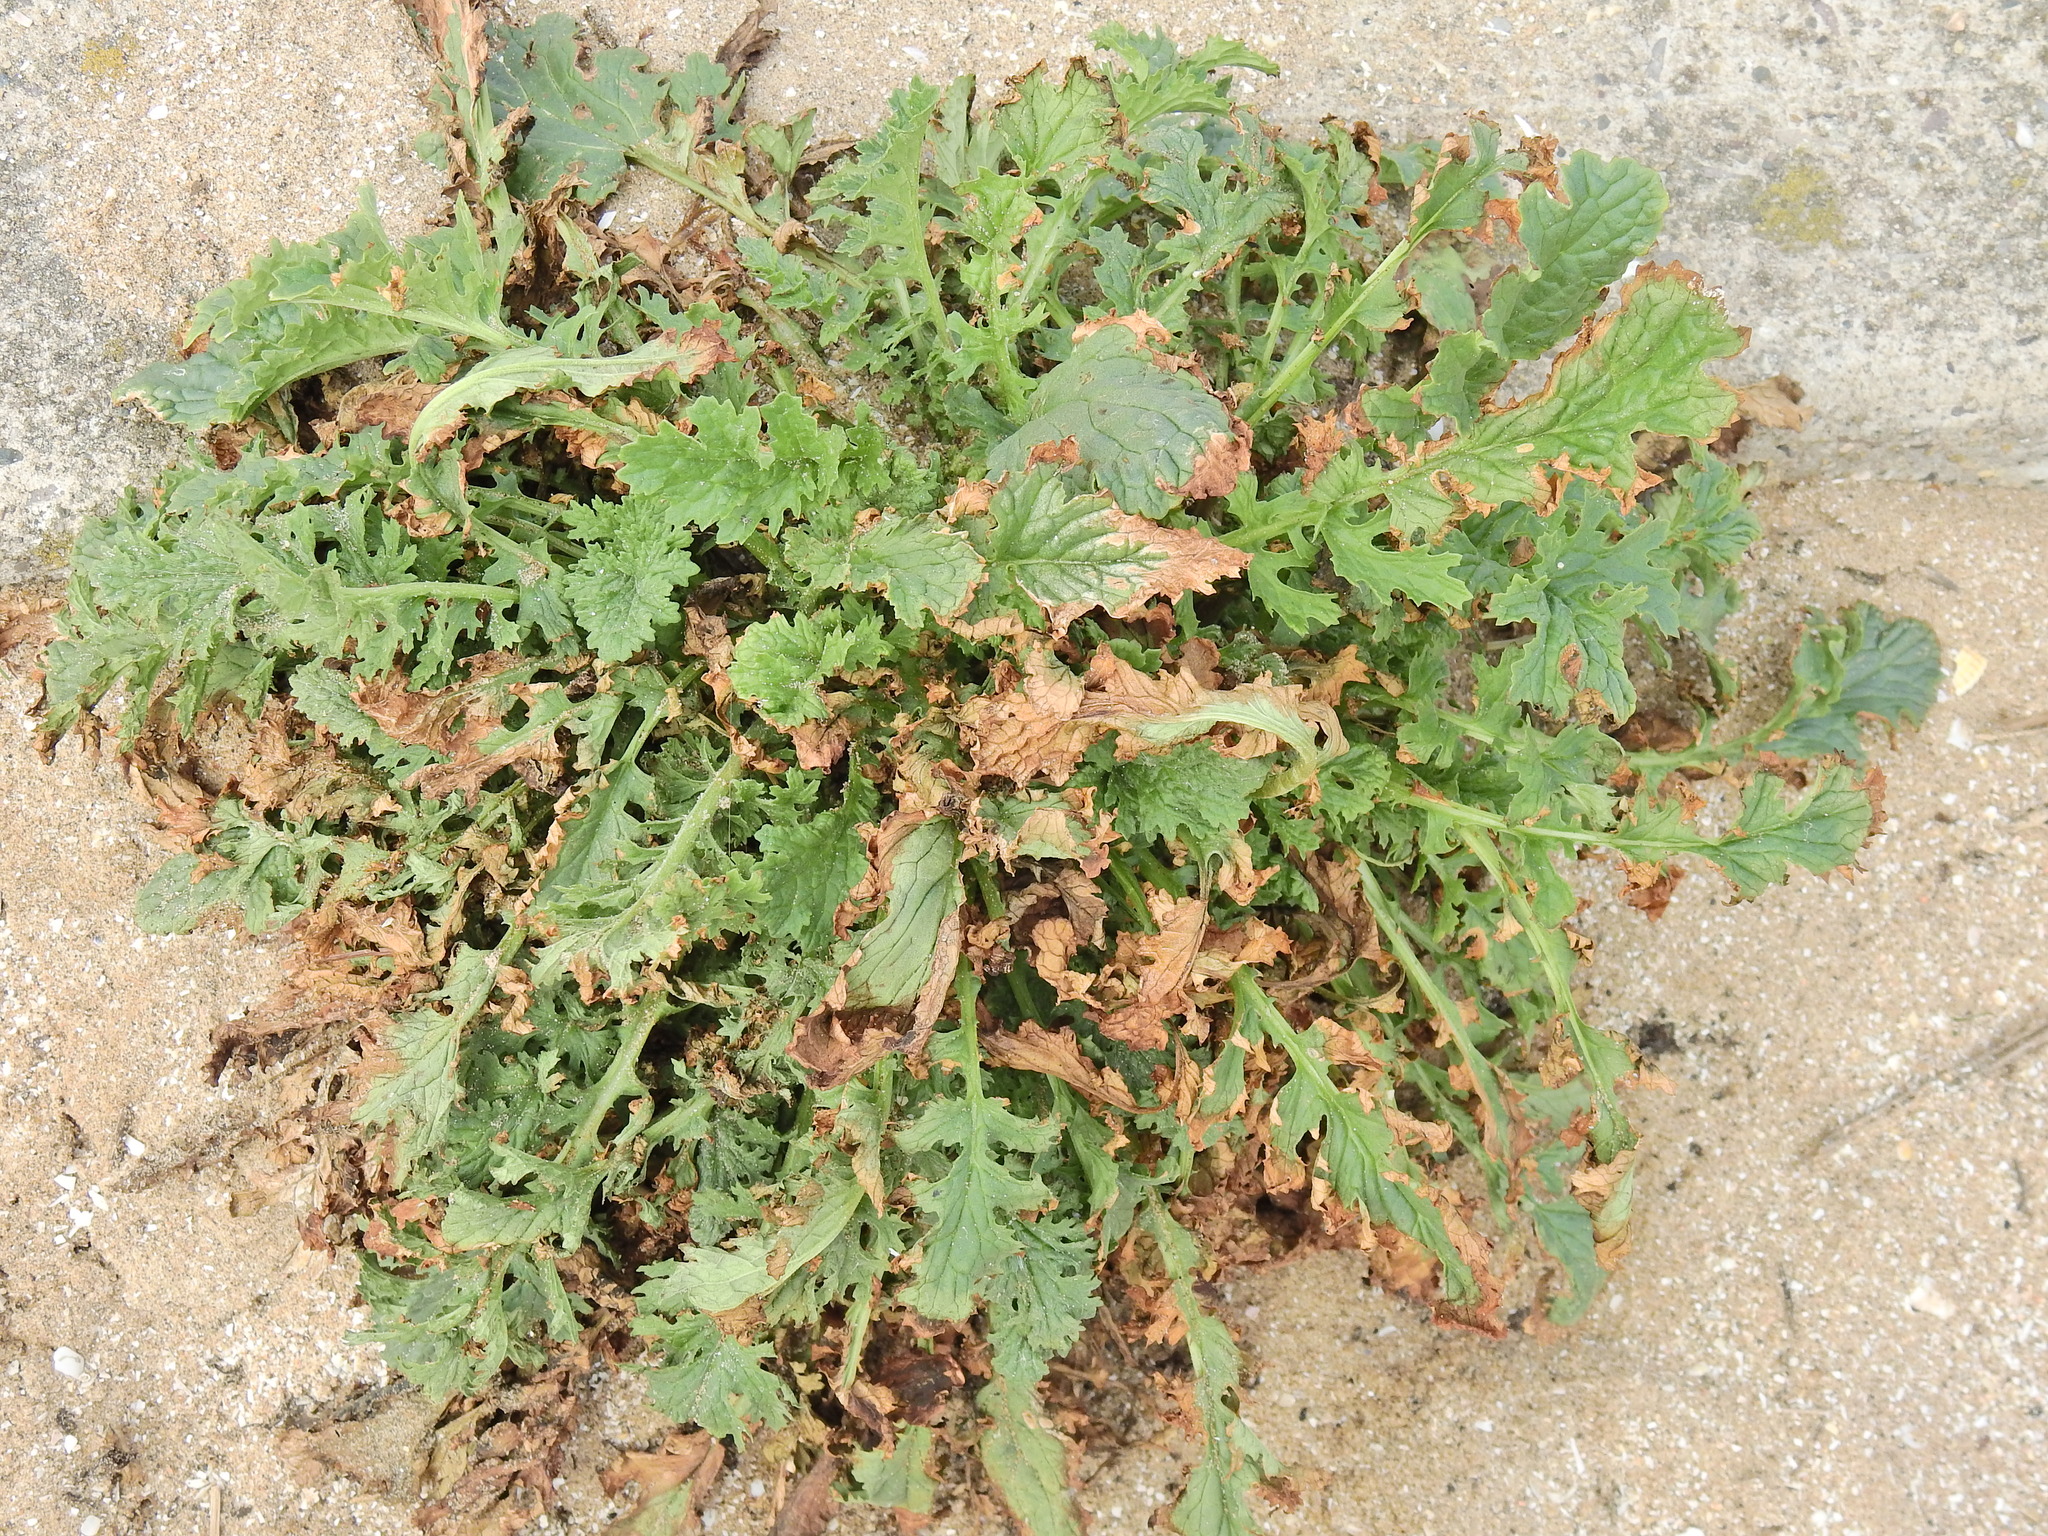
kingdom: Plantae
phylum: Tracheophyta
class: Magnoliopsida
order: Asterales
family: Asteraceae
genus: Jacobaea
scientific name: Jacobaea vulgaris
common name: Stinking willie
